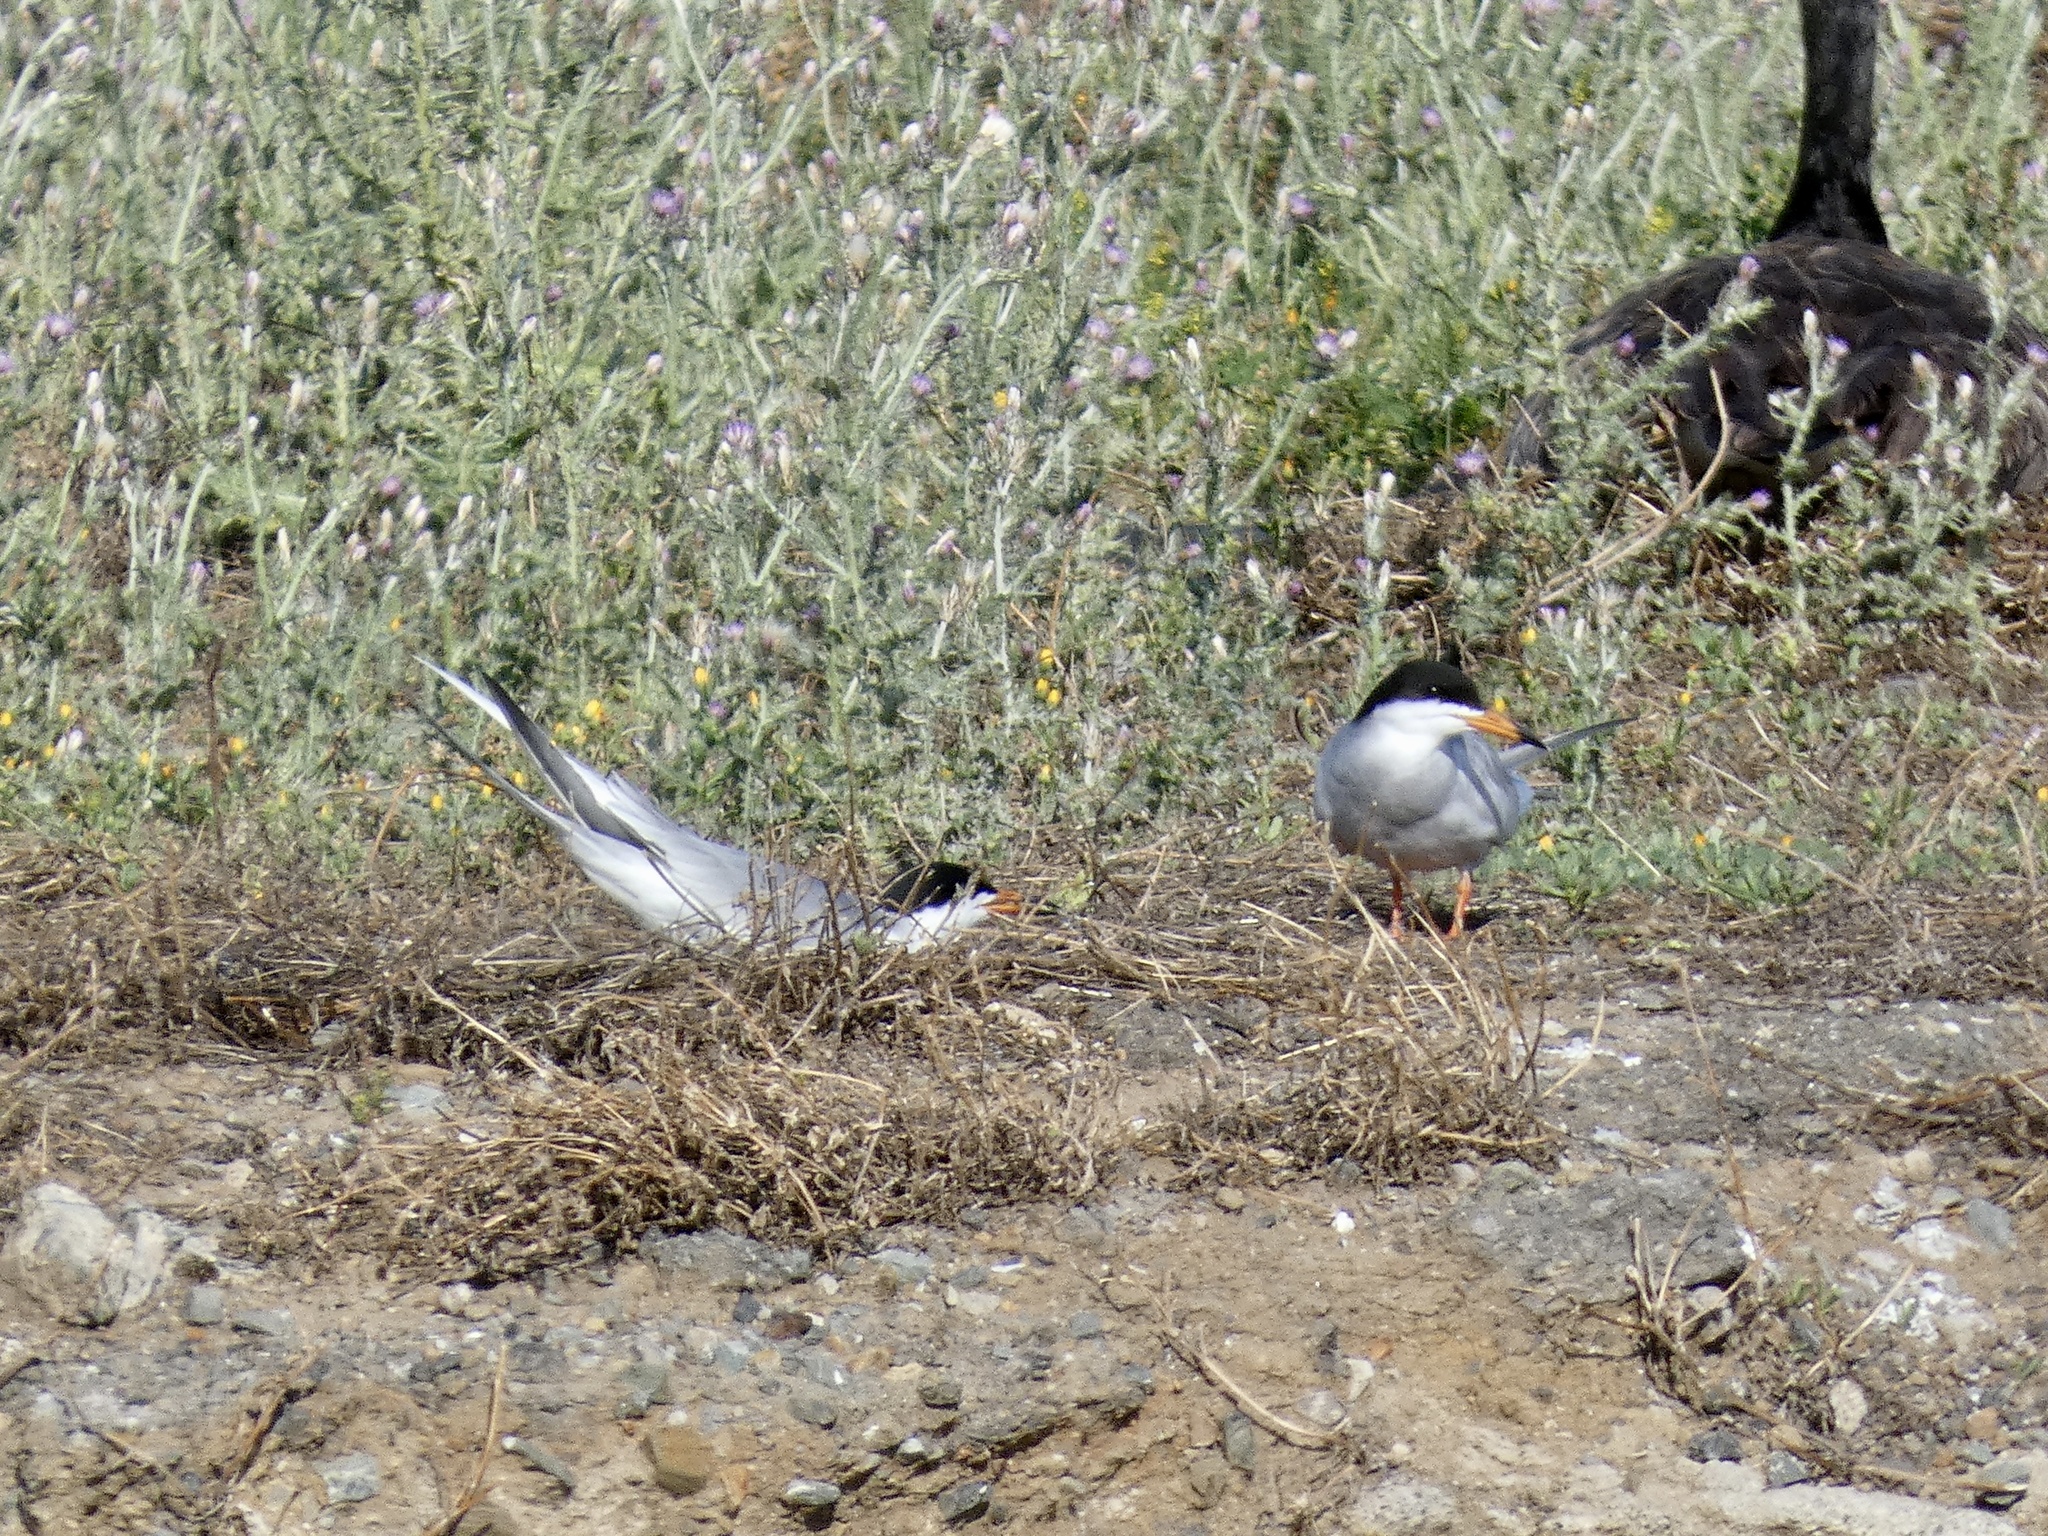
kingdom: Animalia
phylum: Chordata
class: Aves
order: Charadriiformes
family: Laridae
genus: Sterna
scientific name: Sterna forsteri
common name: Forster's tern
